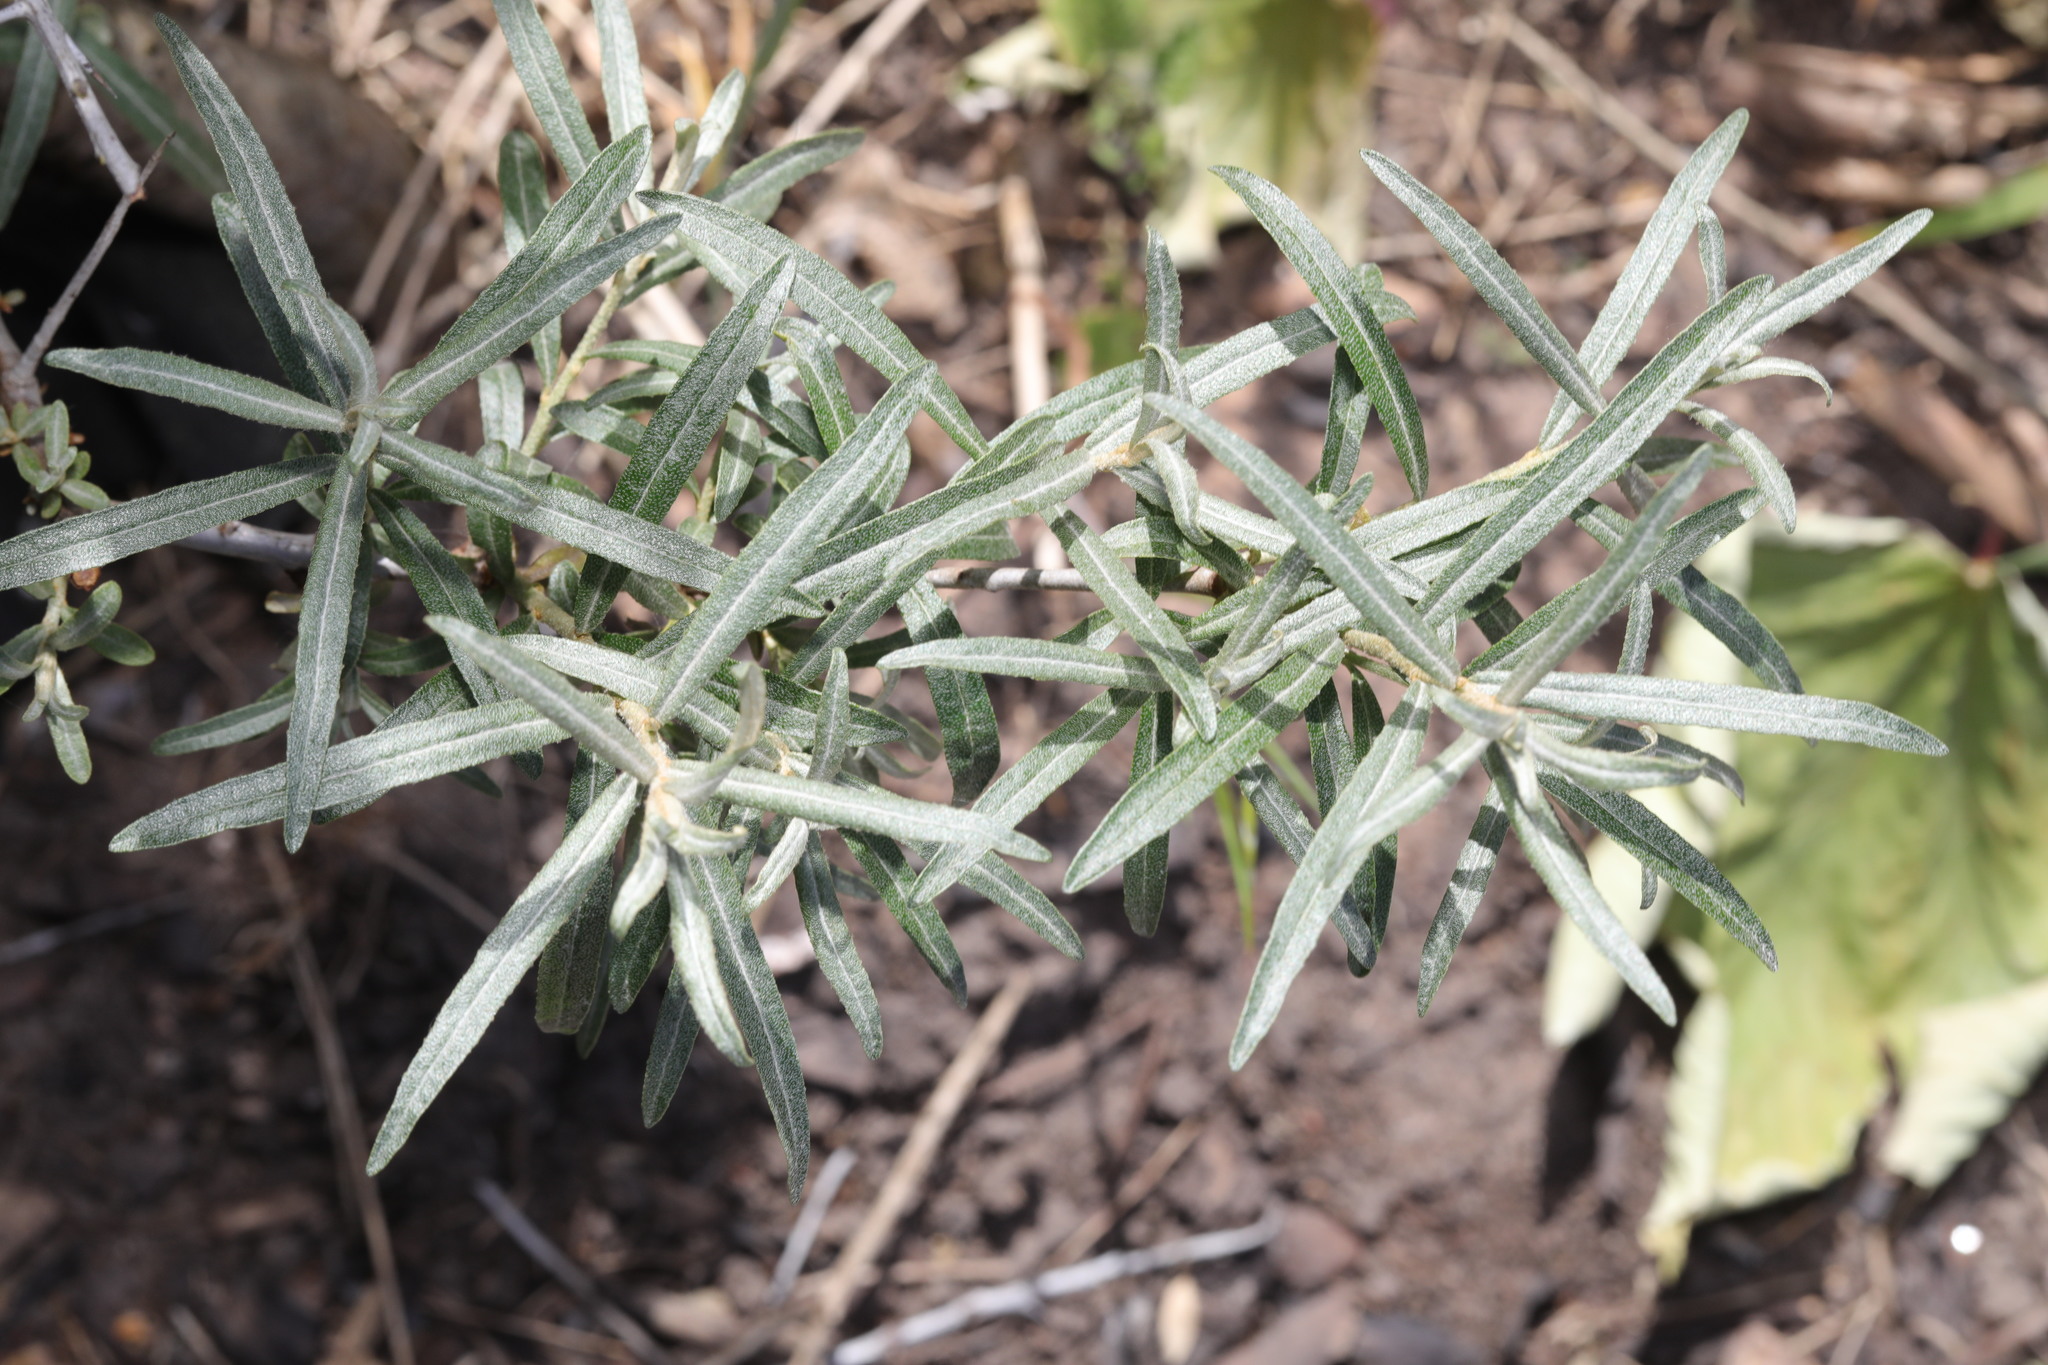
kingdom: Plantae
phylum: Tracheophyta
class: Magnoliopsida
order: Rosales
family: Elaeagnaceae
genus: Hippophae
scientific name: Hippophae rhamnoides
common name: Sea-buckthorn
